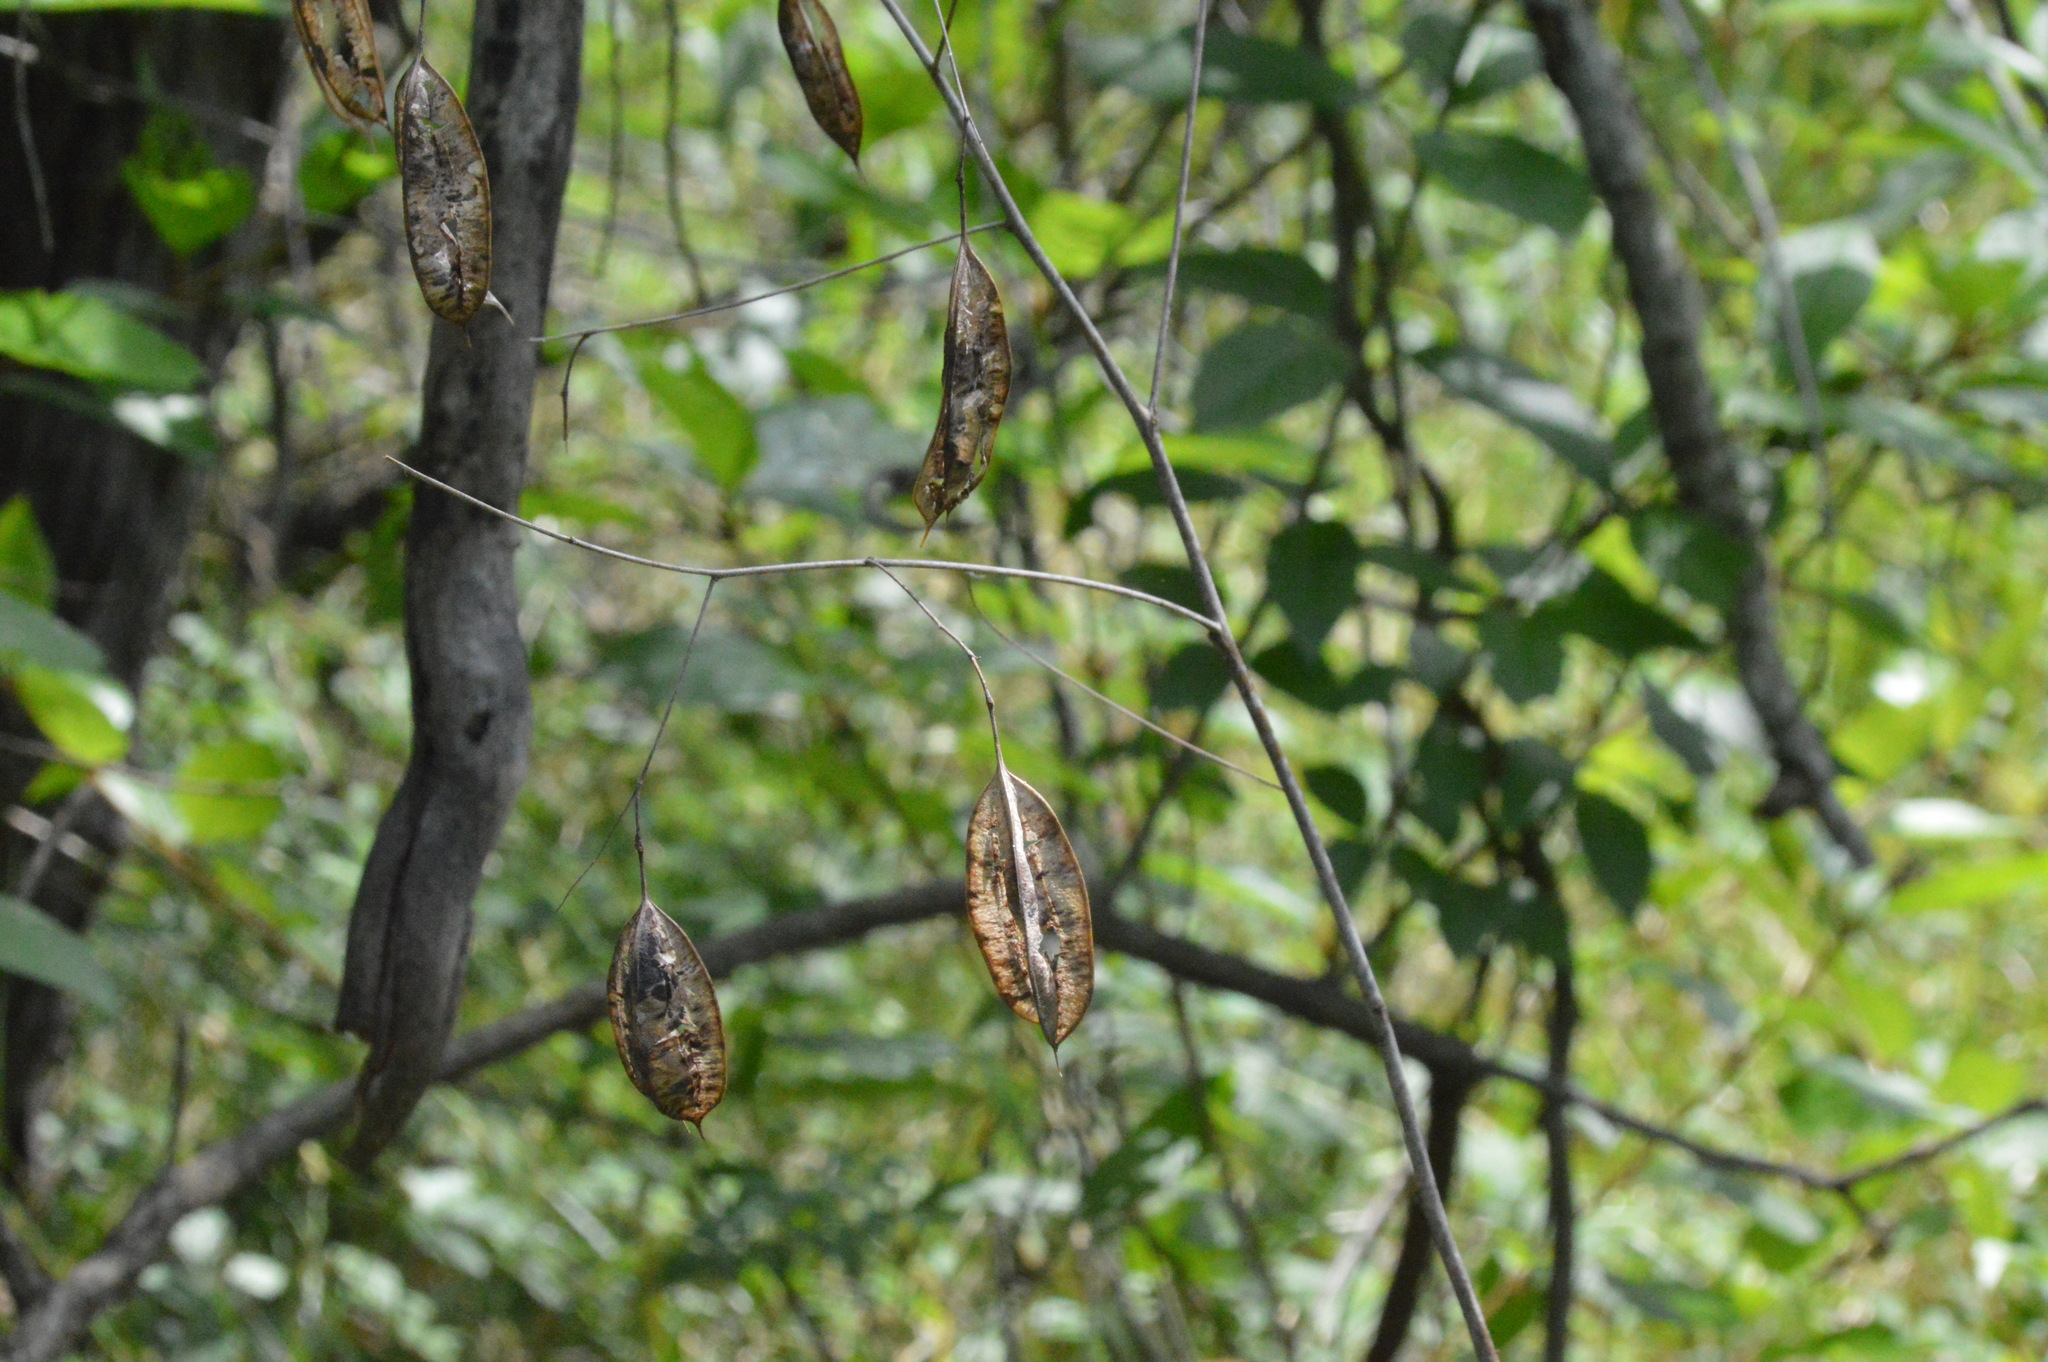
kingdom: Plantae
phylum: Tracheophyta
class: Magnoliopsida
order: Fabales
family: Fabaceae
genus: Sesbania
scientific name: Sesbania vesicaria
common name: Bagpod
